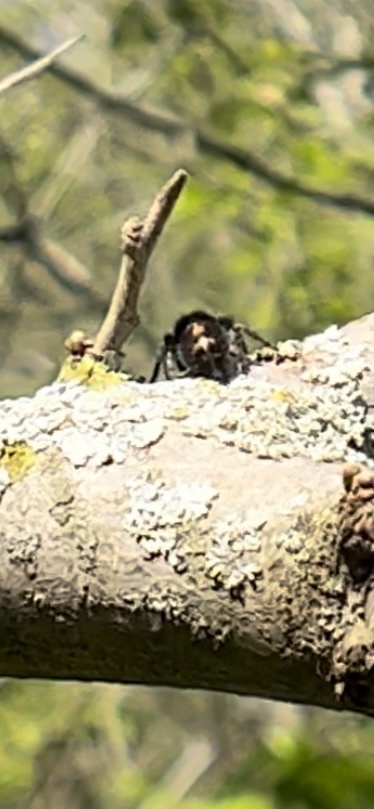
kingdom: Animalia
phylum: Arthropoda
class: Arachnida
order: Araneae
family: Salticidae
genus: Phidippus
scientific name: Phidippus audax
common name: Bold jumper
